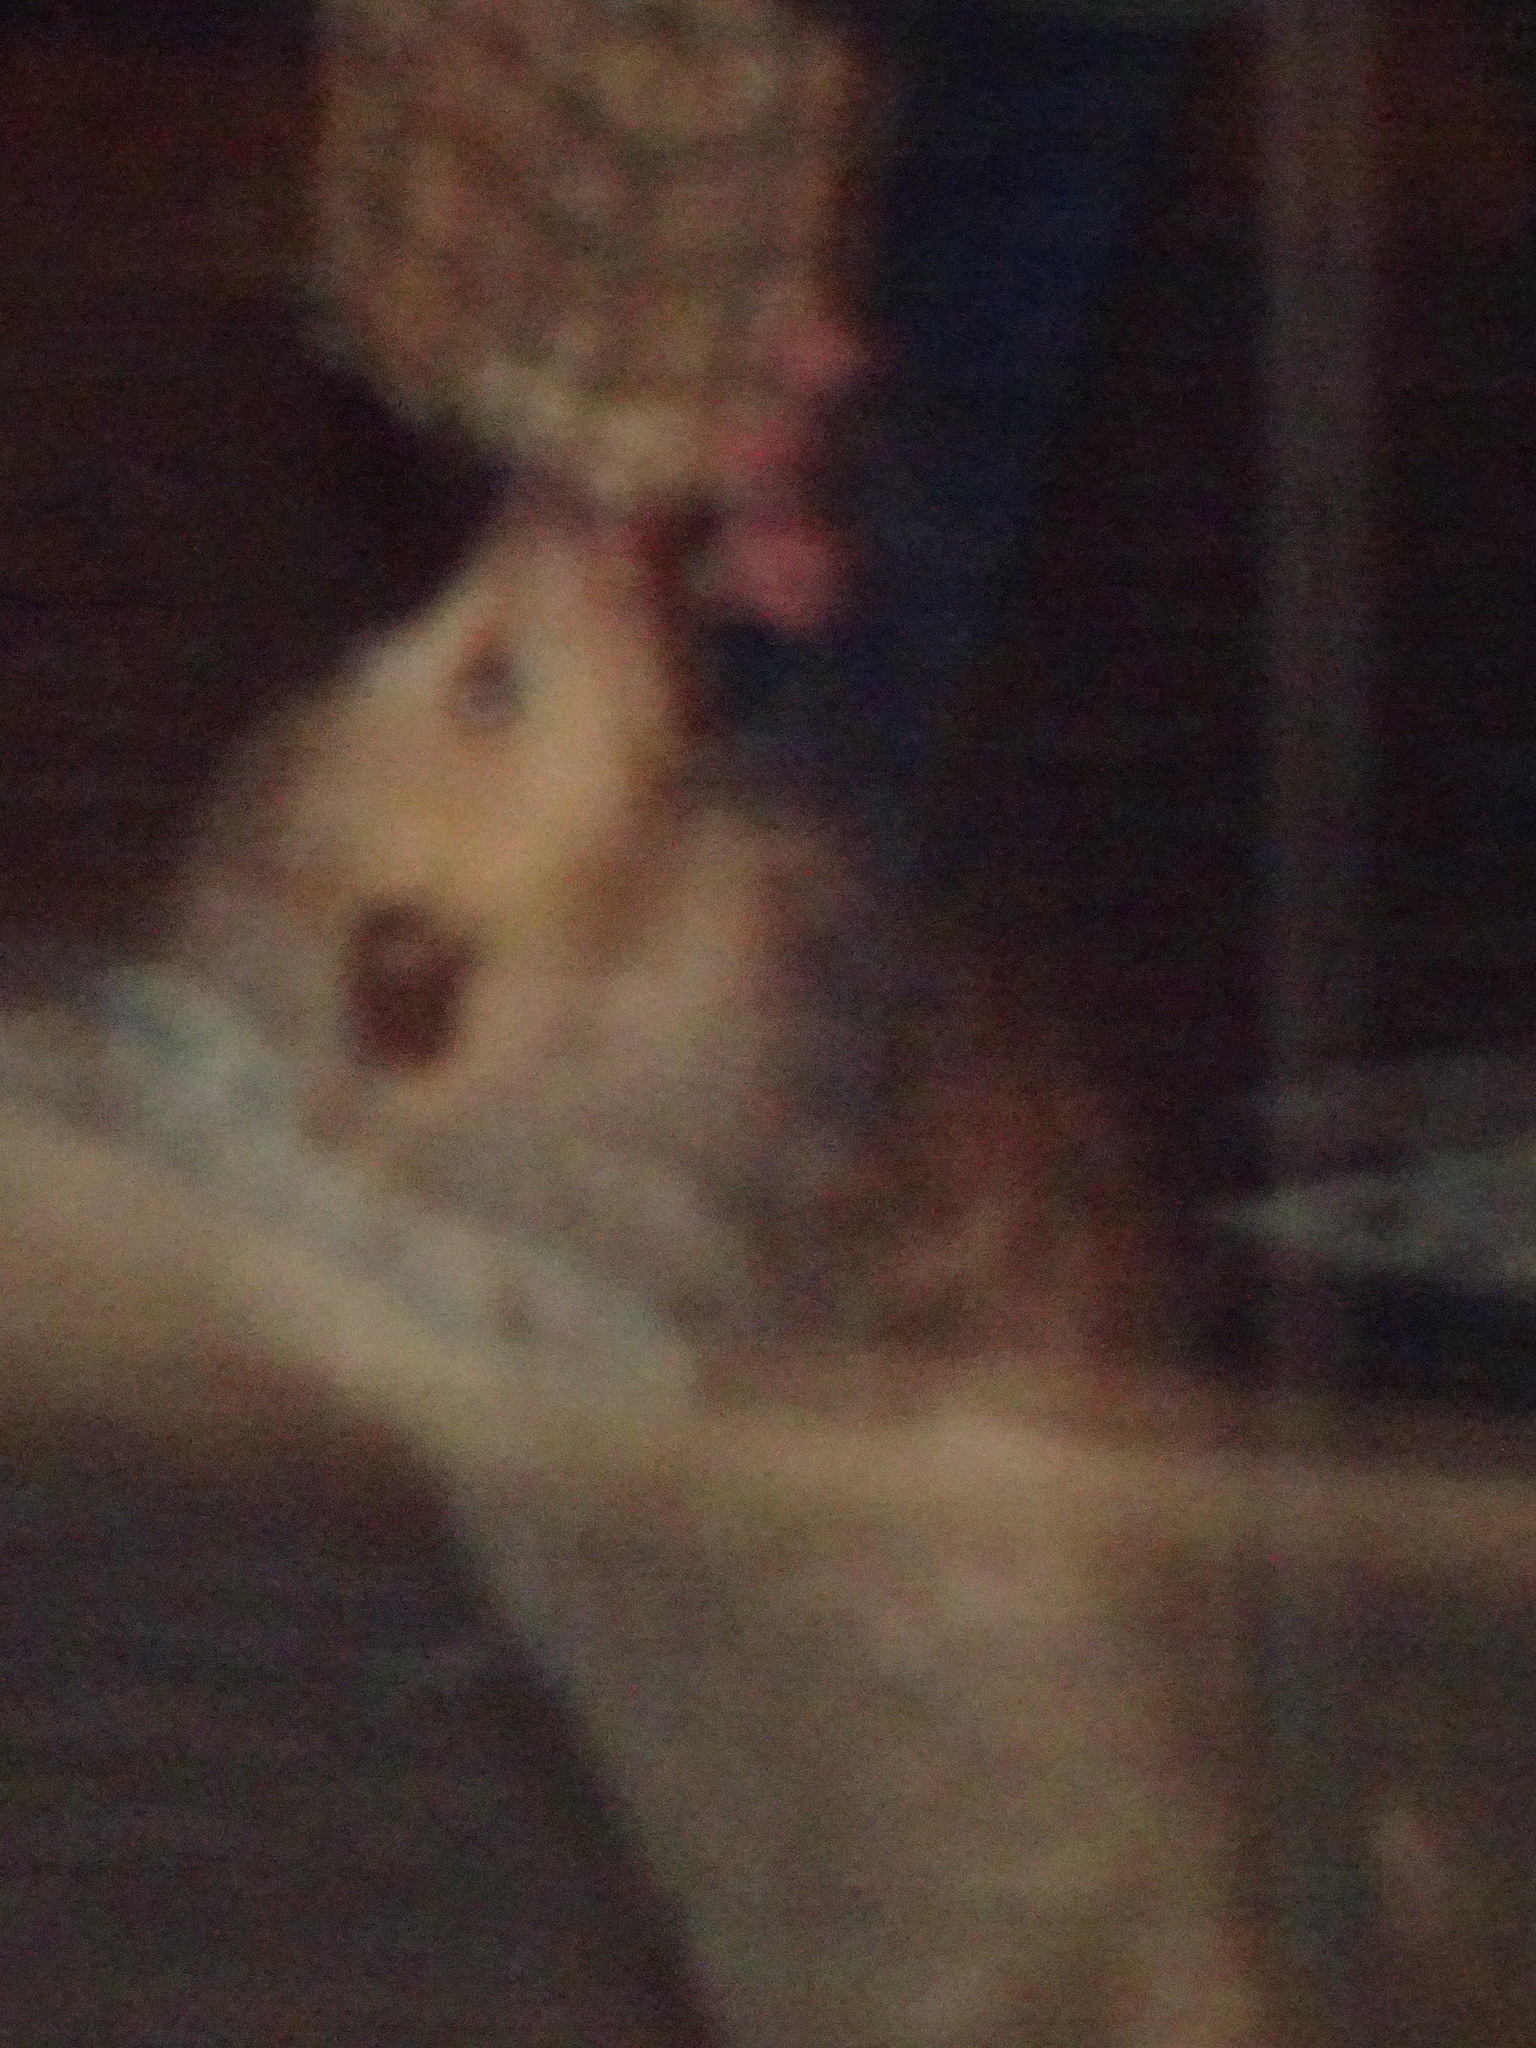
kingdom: Animalia
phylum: Chordata
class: Mammalia
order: Didelphimorphia
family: Didelphidae
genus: Didelphis
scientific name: Didelphis virginiana
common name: Virginia opossum
